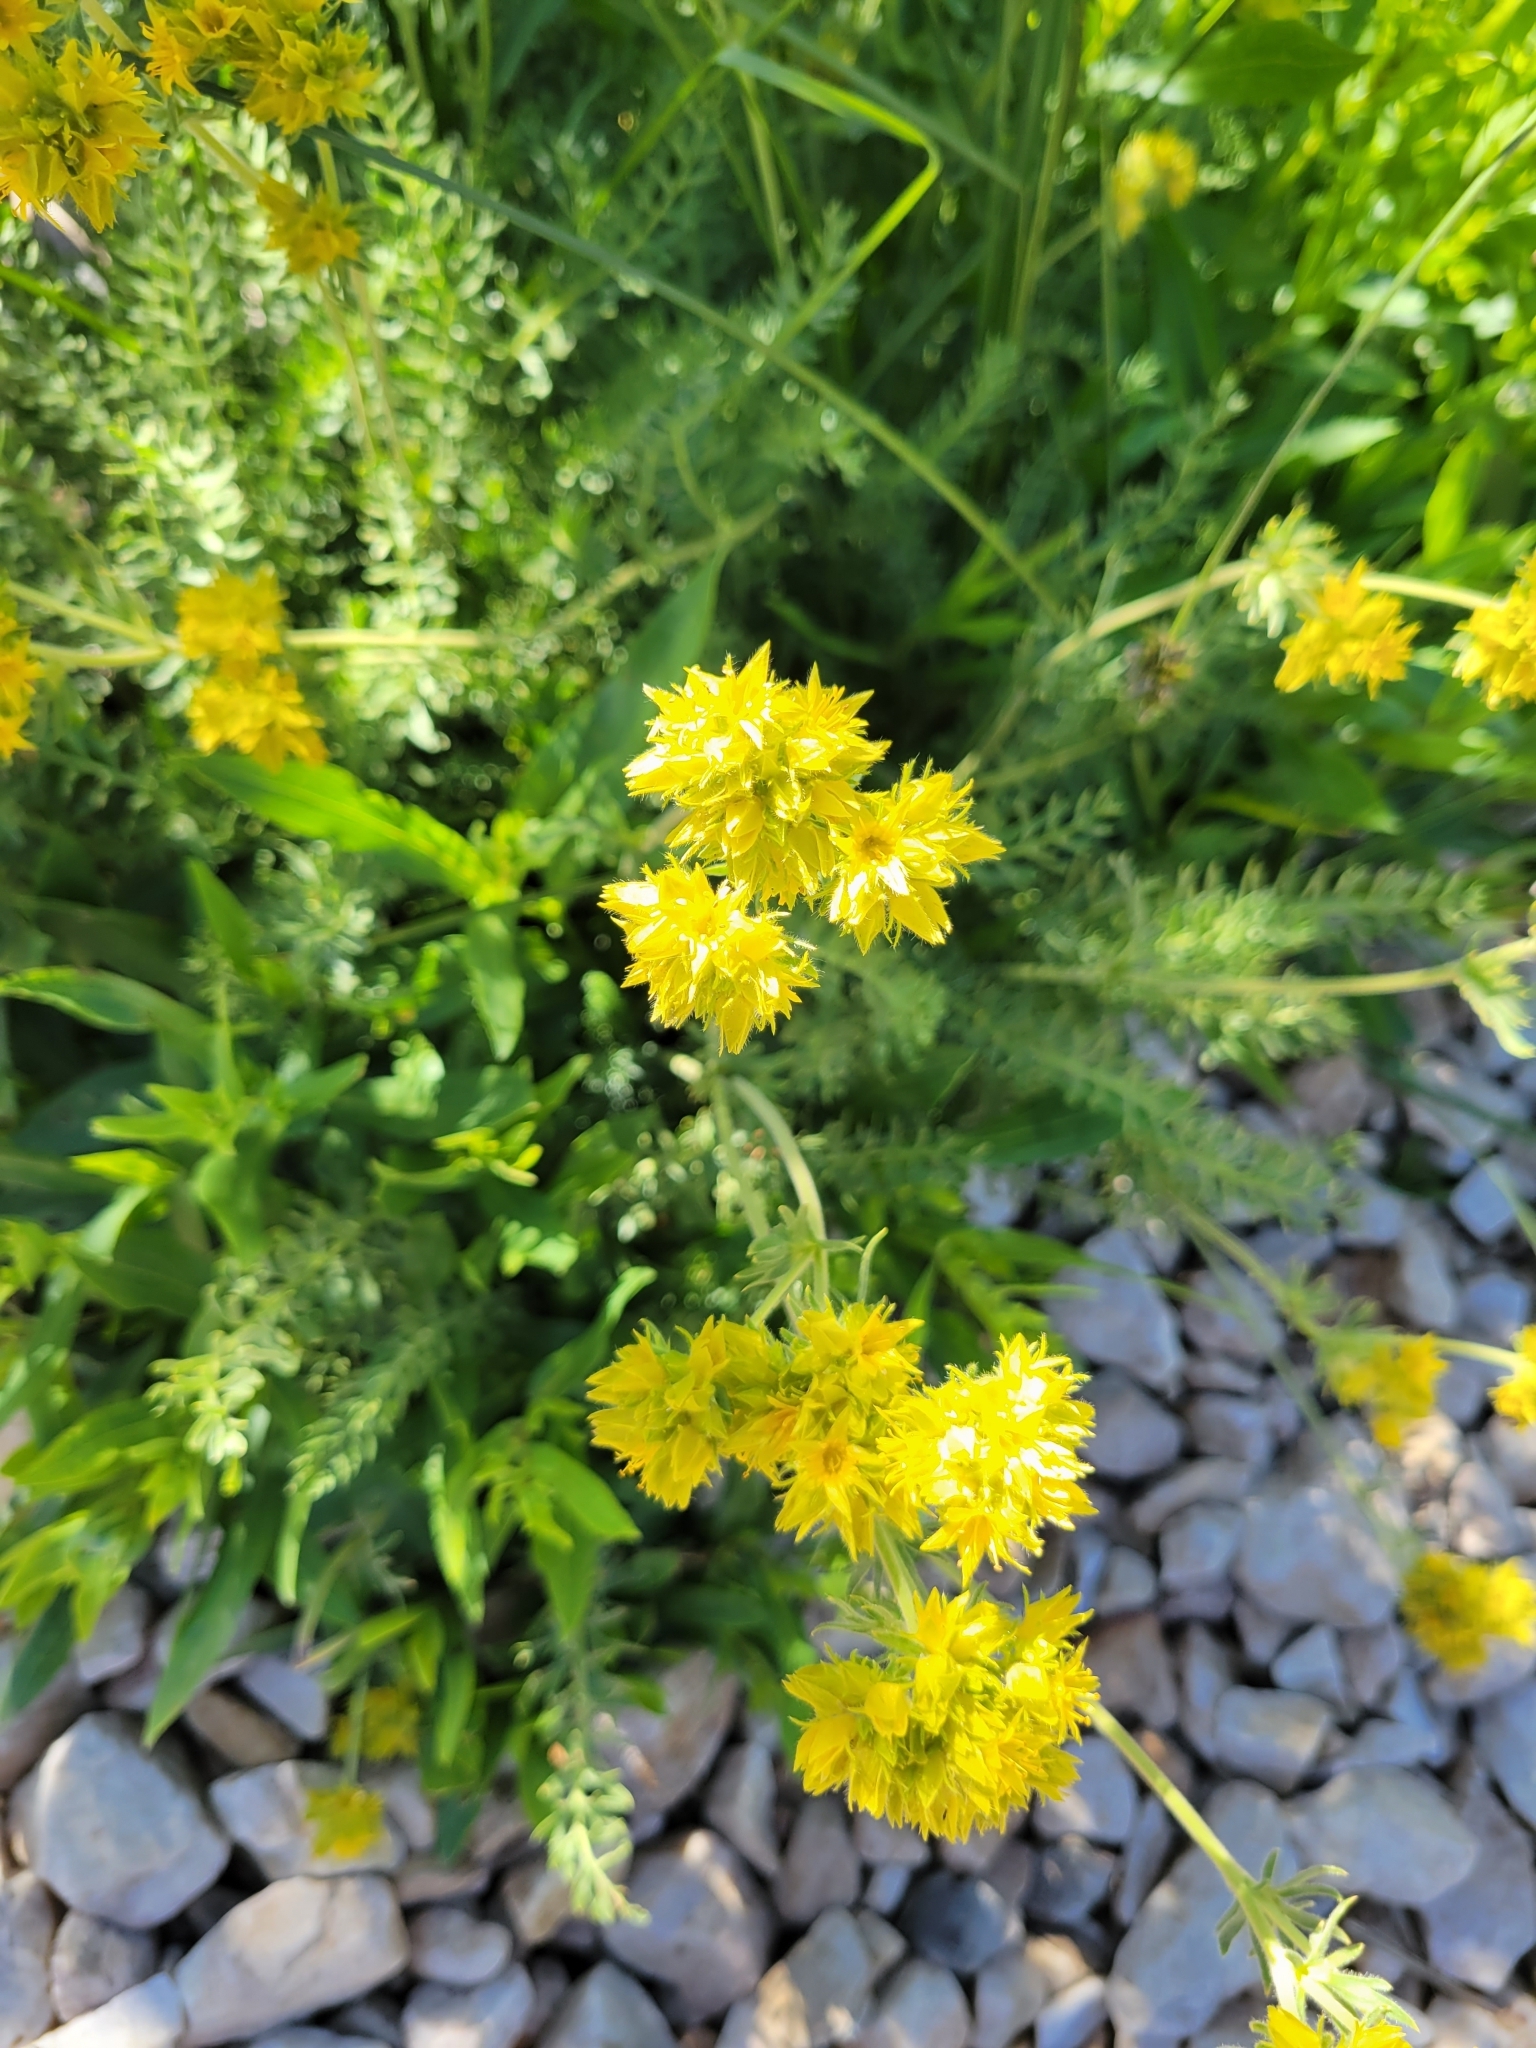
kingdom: Plantae
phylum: Tracheophyta
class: Magnoliopsida
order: Rosales
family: Rosaceae
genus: Potentilla
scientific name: Potentilla gordonii
